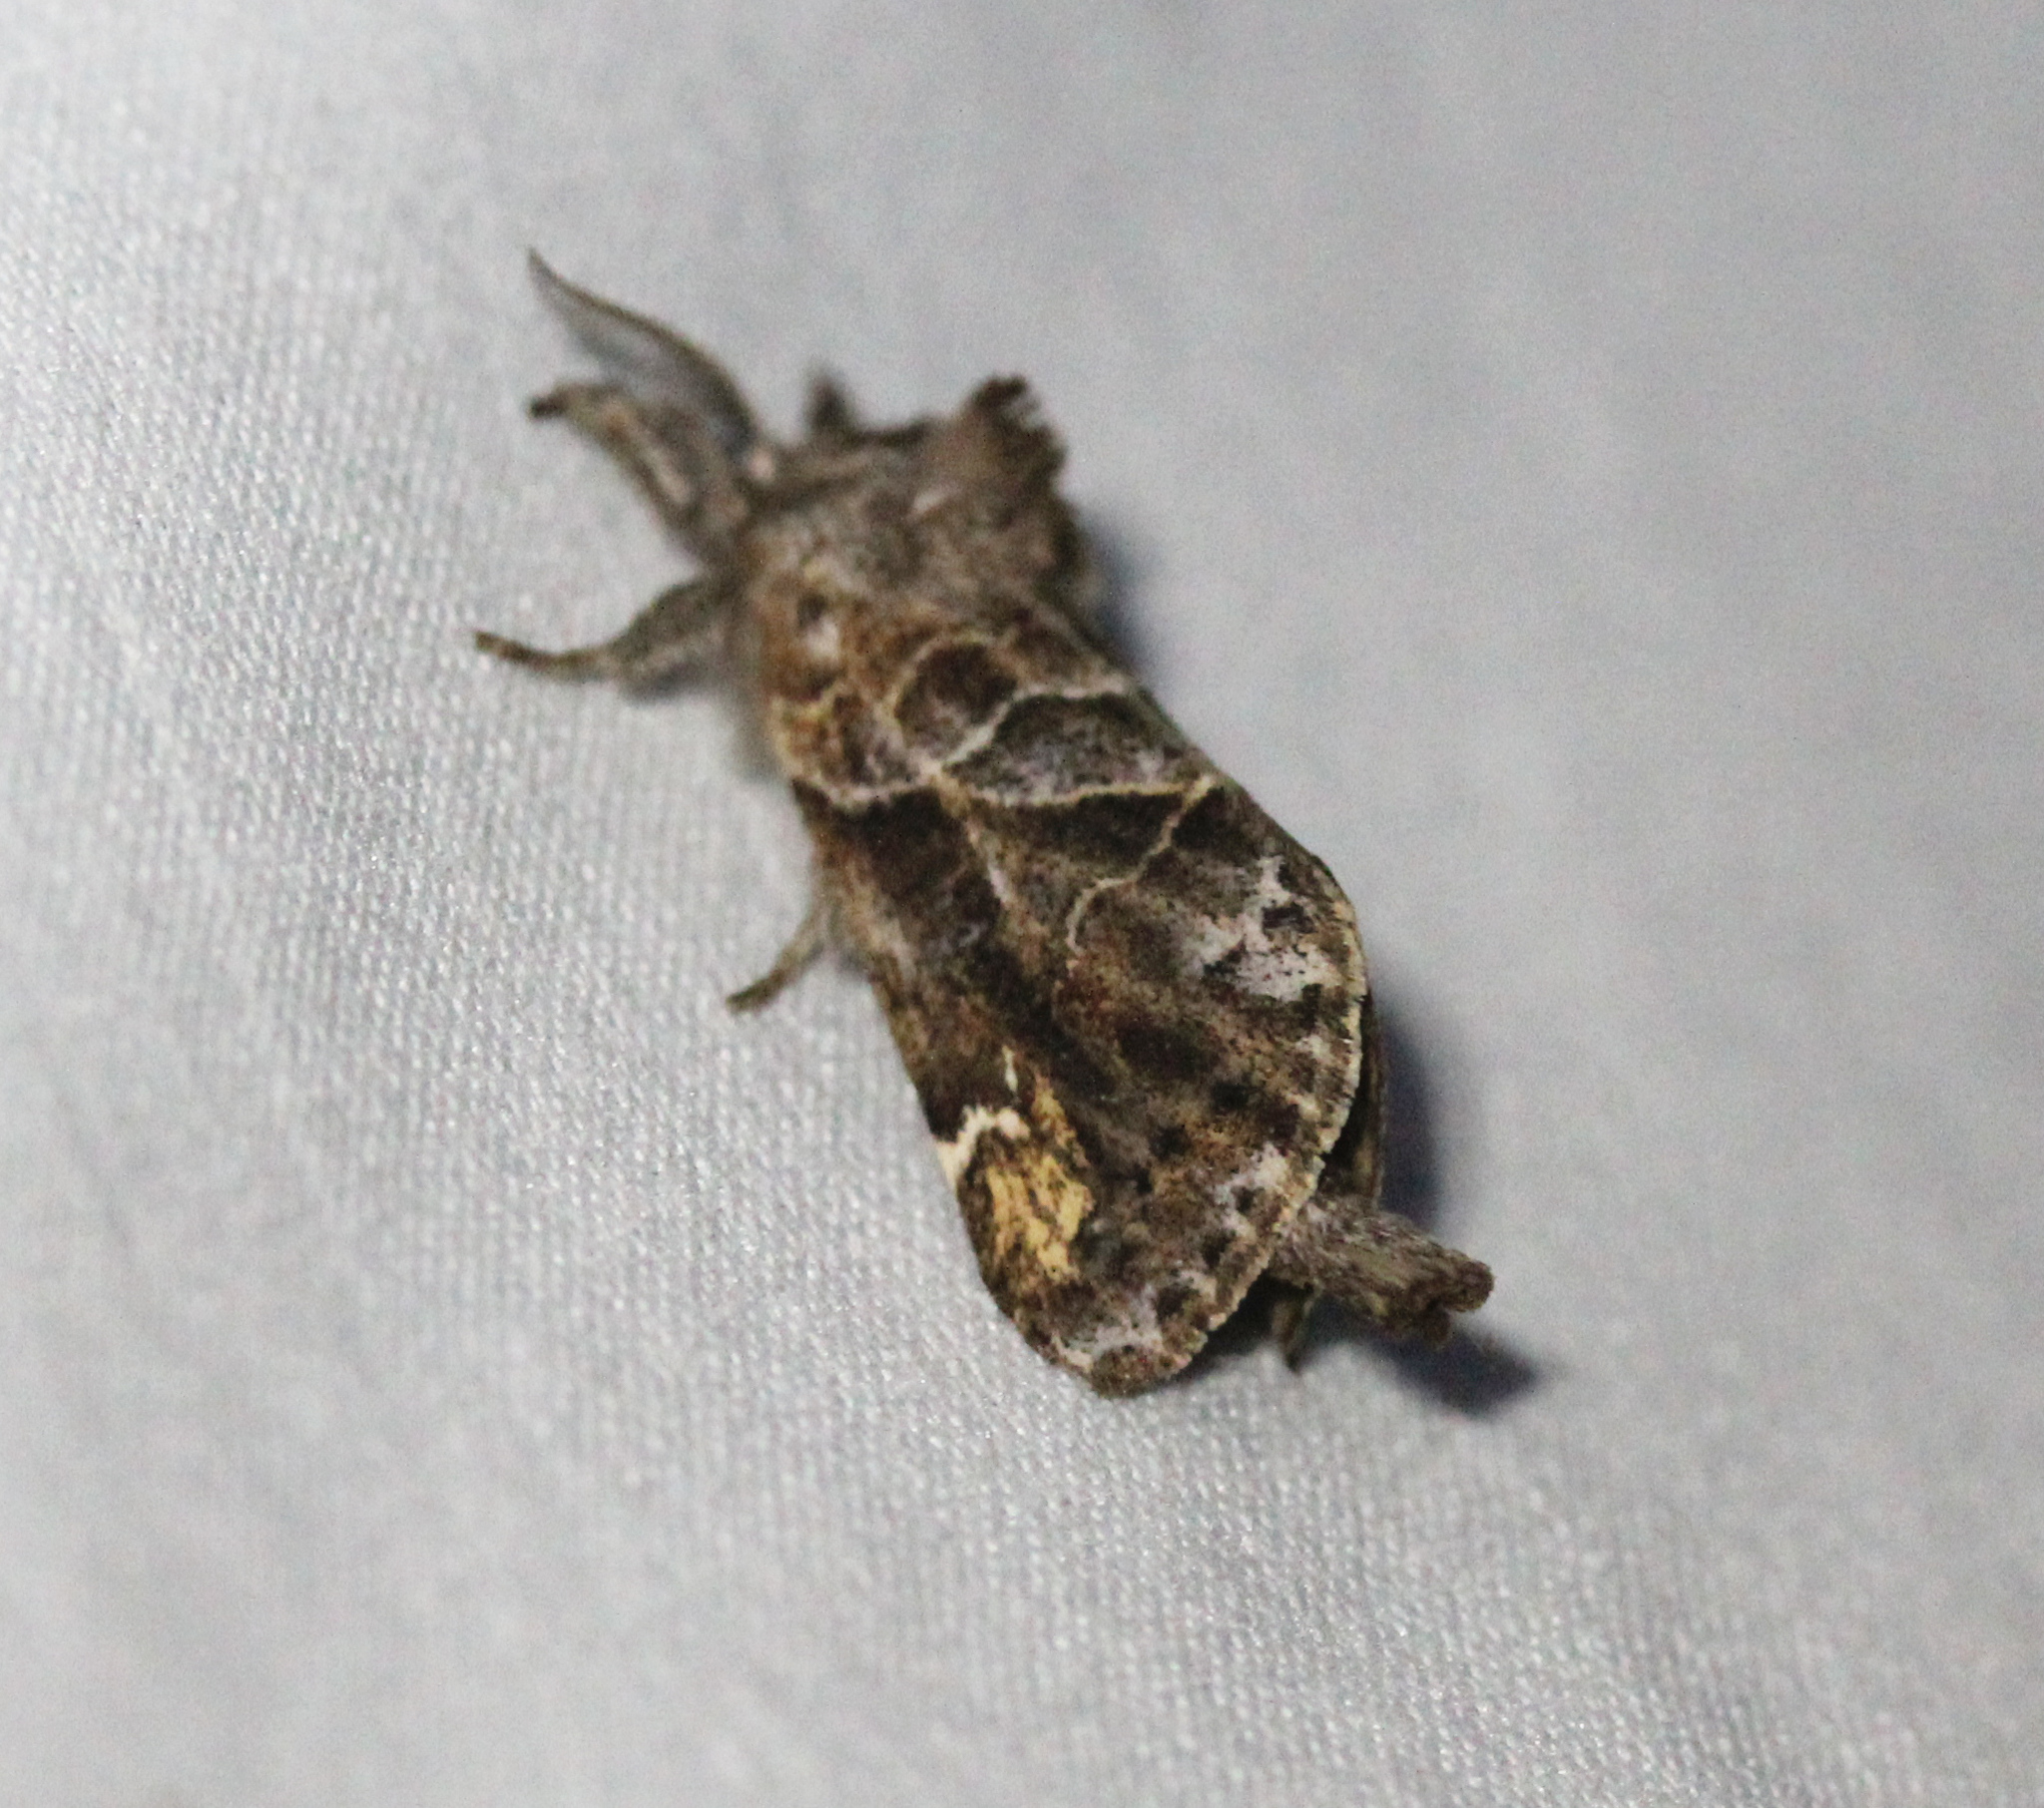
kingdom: Animalia
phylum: Arthropoda
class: Insecta
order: Lepidoptera
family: Notodontidae
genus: Clostera
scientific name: Clostera strigosa
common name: Striped chocolate-tip moth
